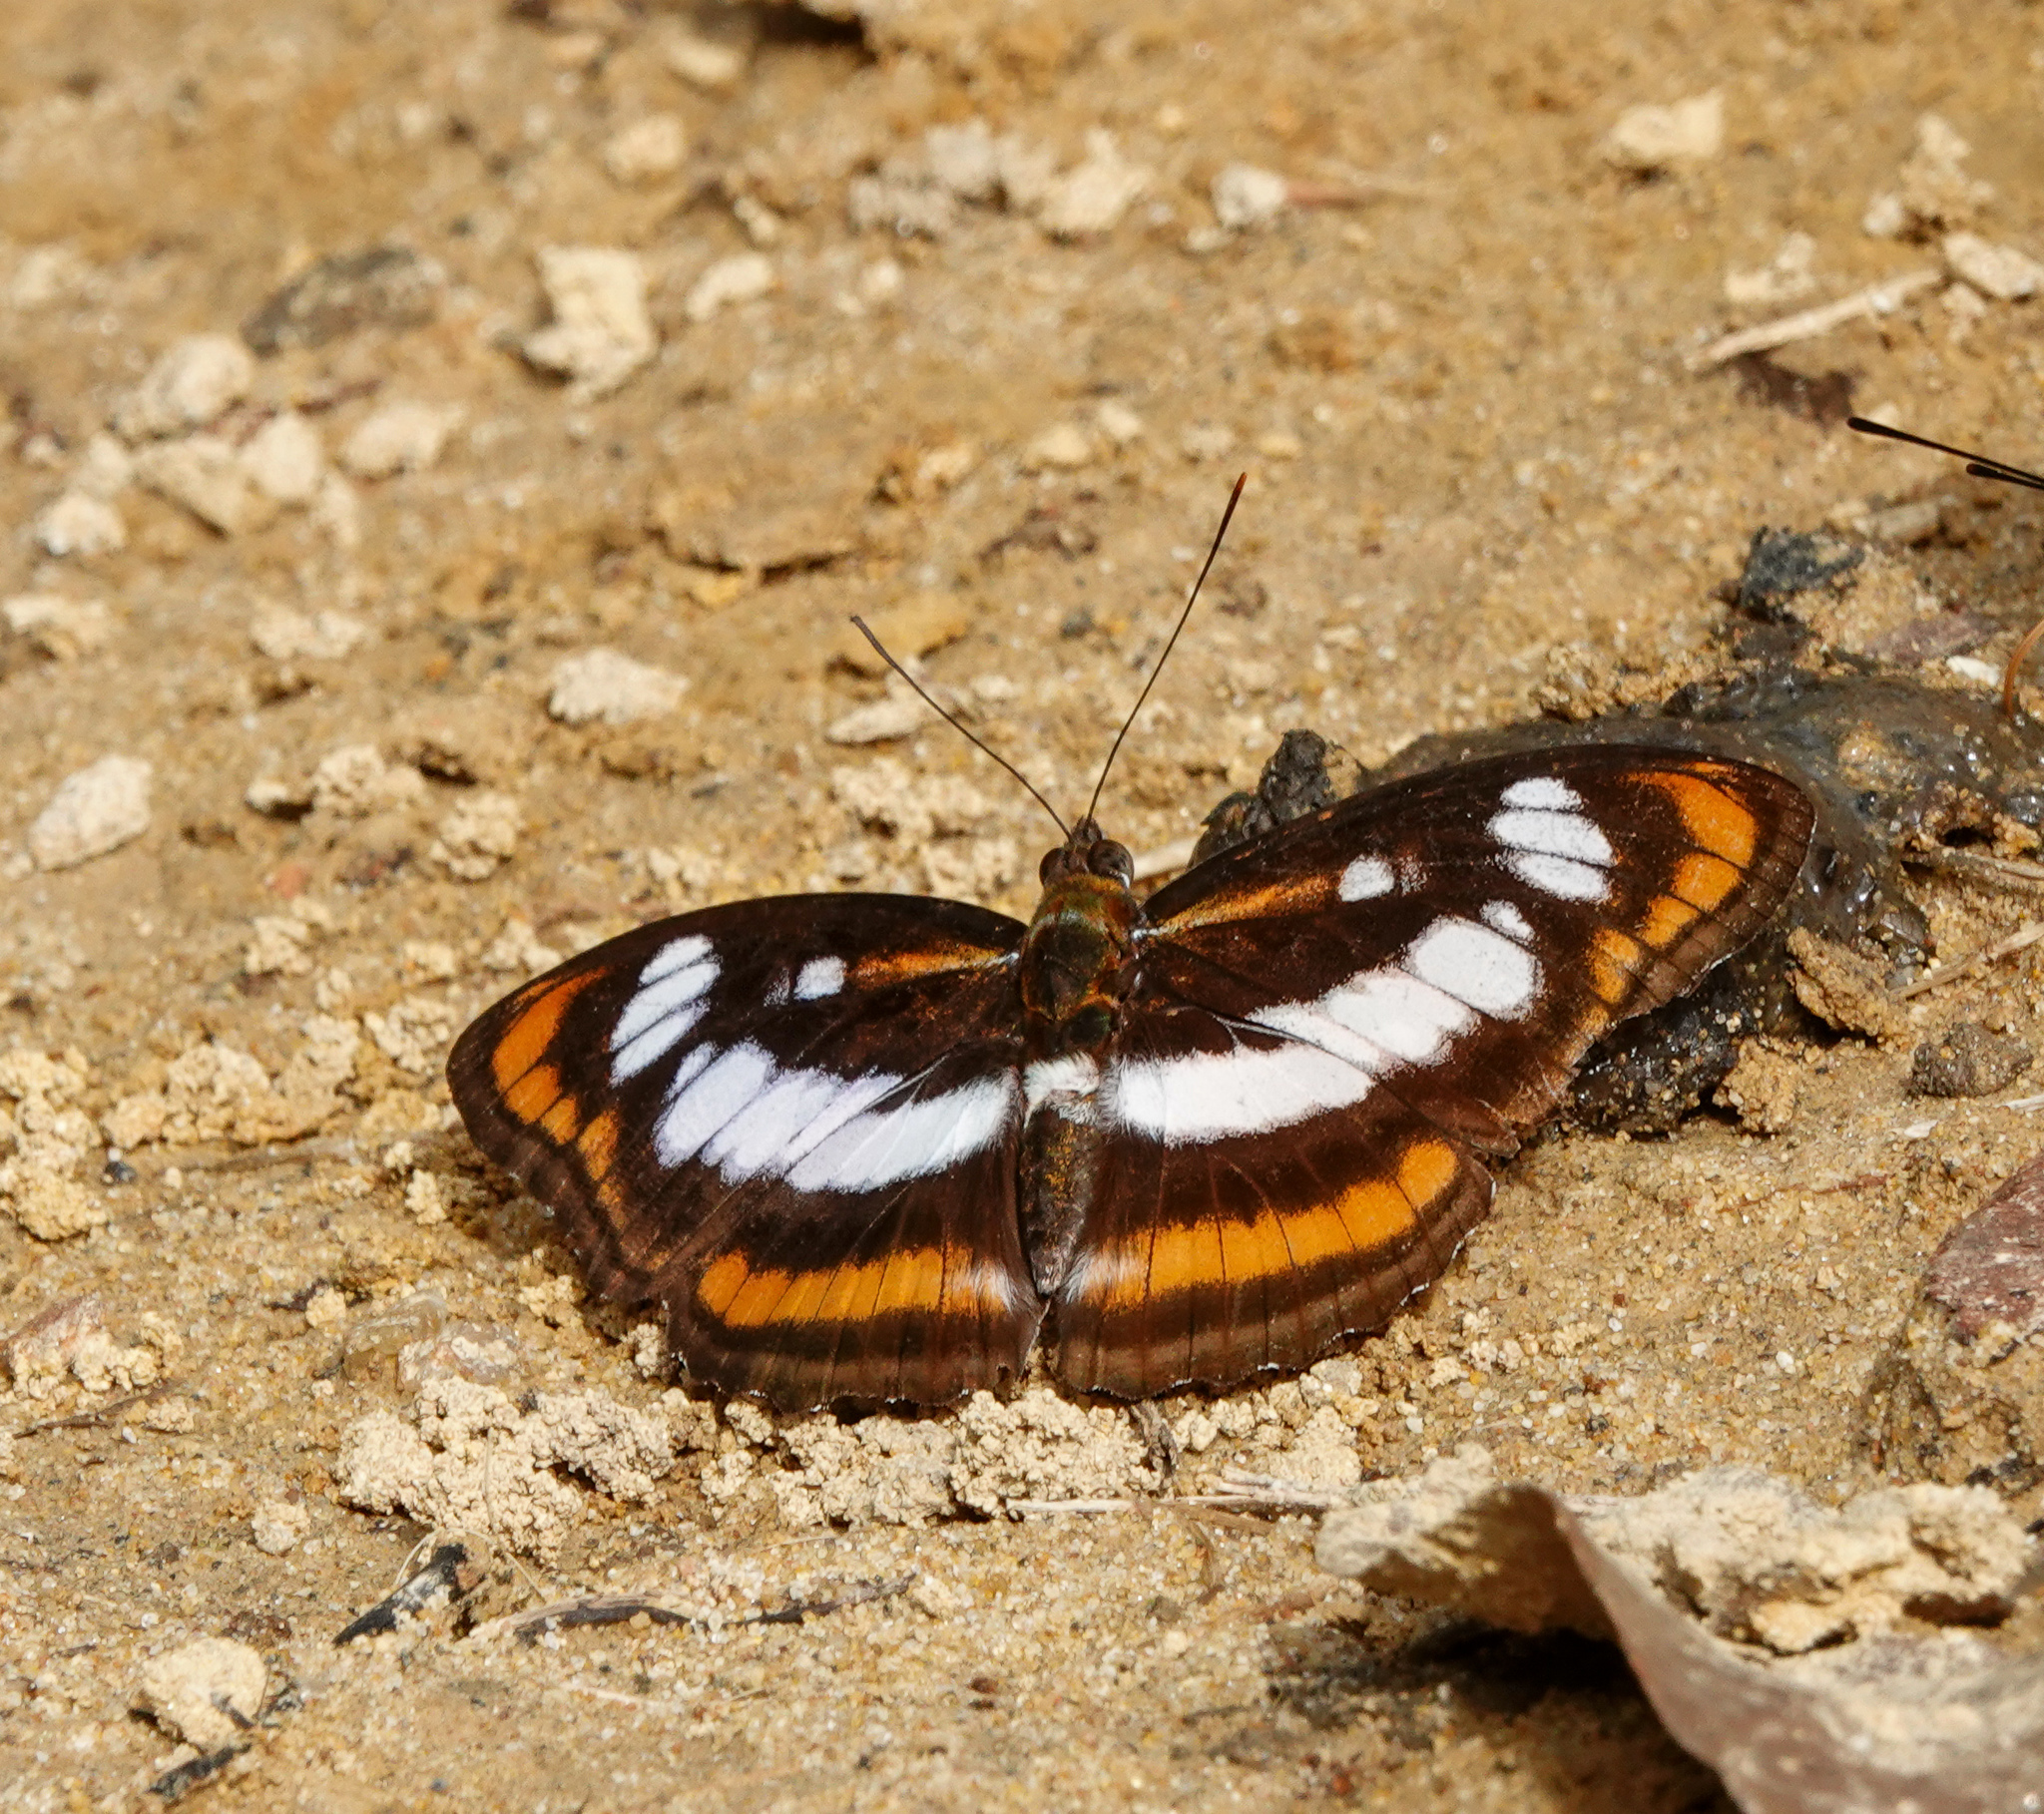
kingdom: Animalia
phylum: Arthropoda
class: Insecta
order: Lepidoptera
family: Nymphalidae
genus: Parathyma
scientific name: Parathyma nefte
